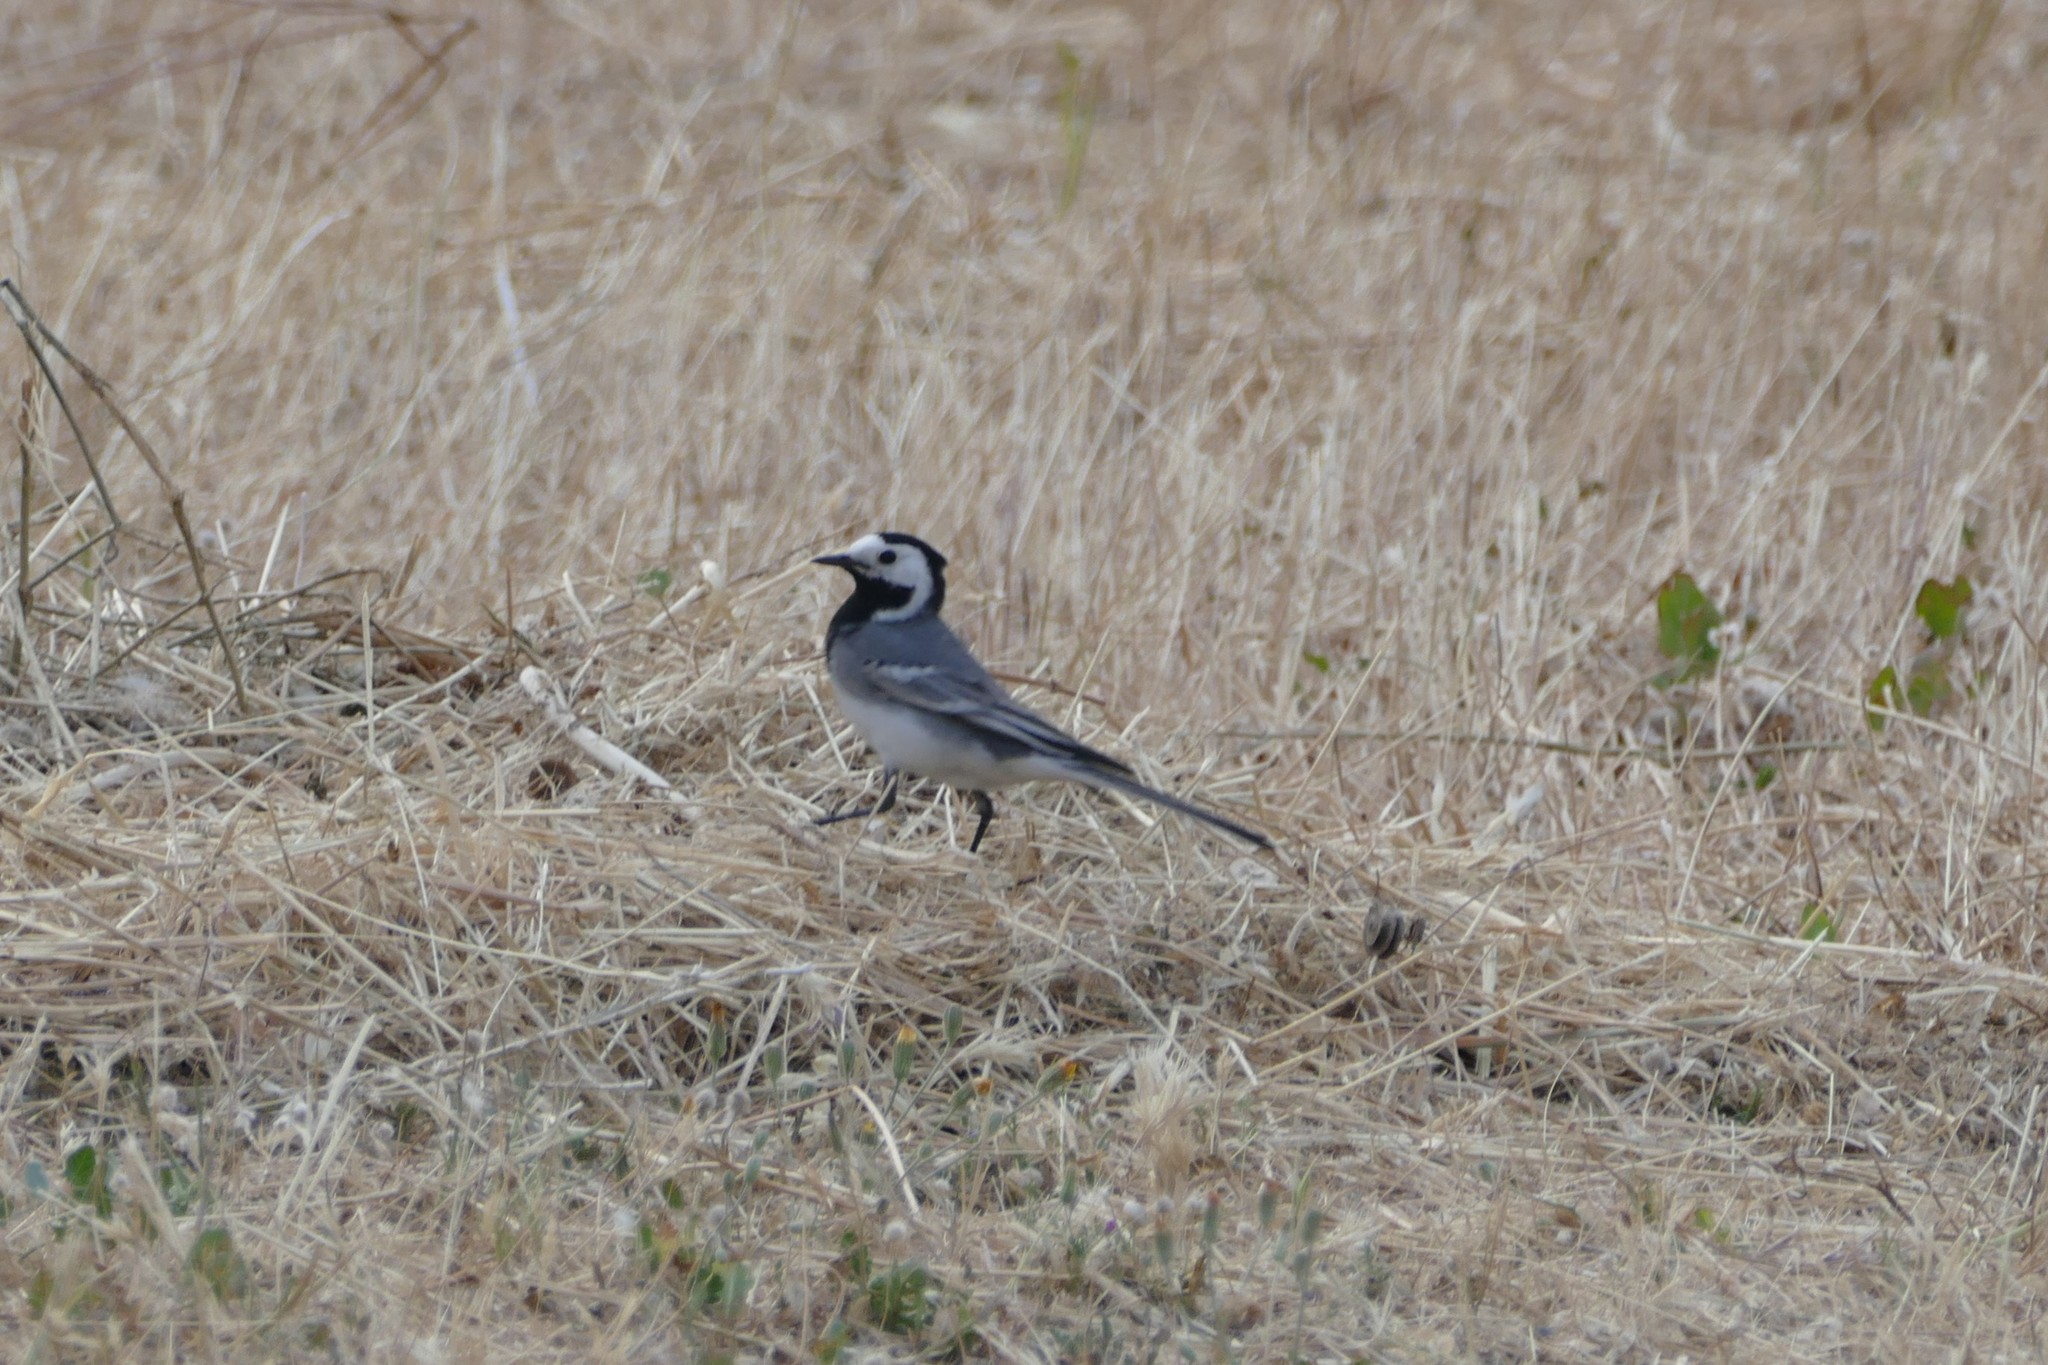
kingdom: Animalia
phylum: Chordata
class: Aves
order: Passeriformes
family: Motacillidae
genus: Motacilla
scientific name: Motacilla alba
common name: White wagtail
